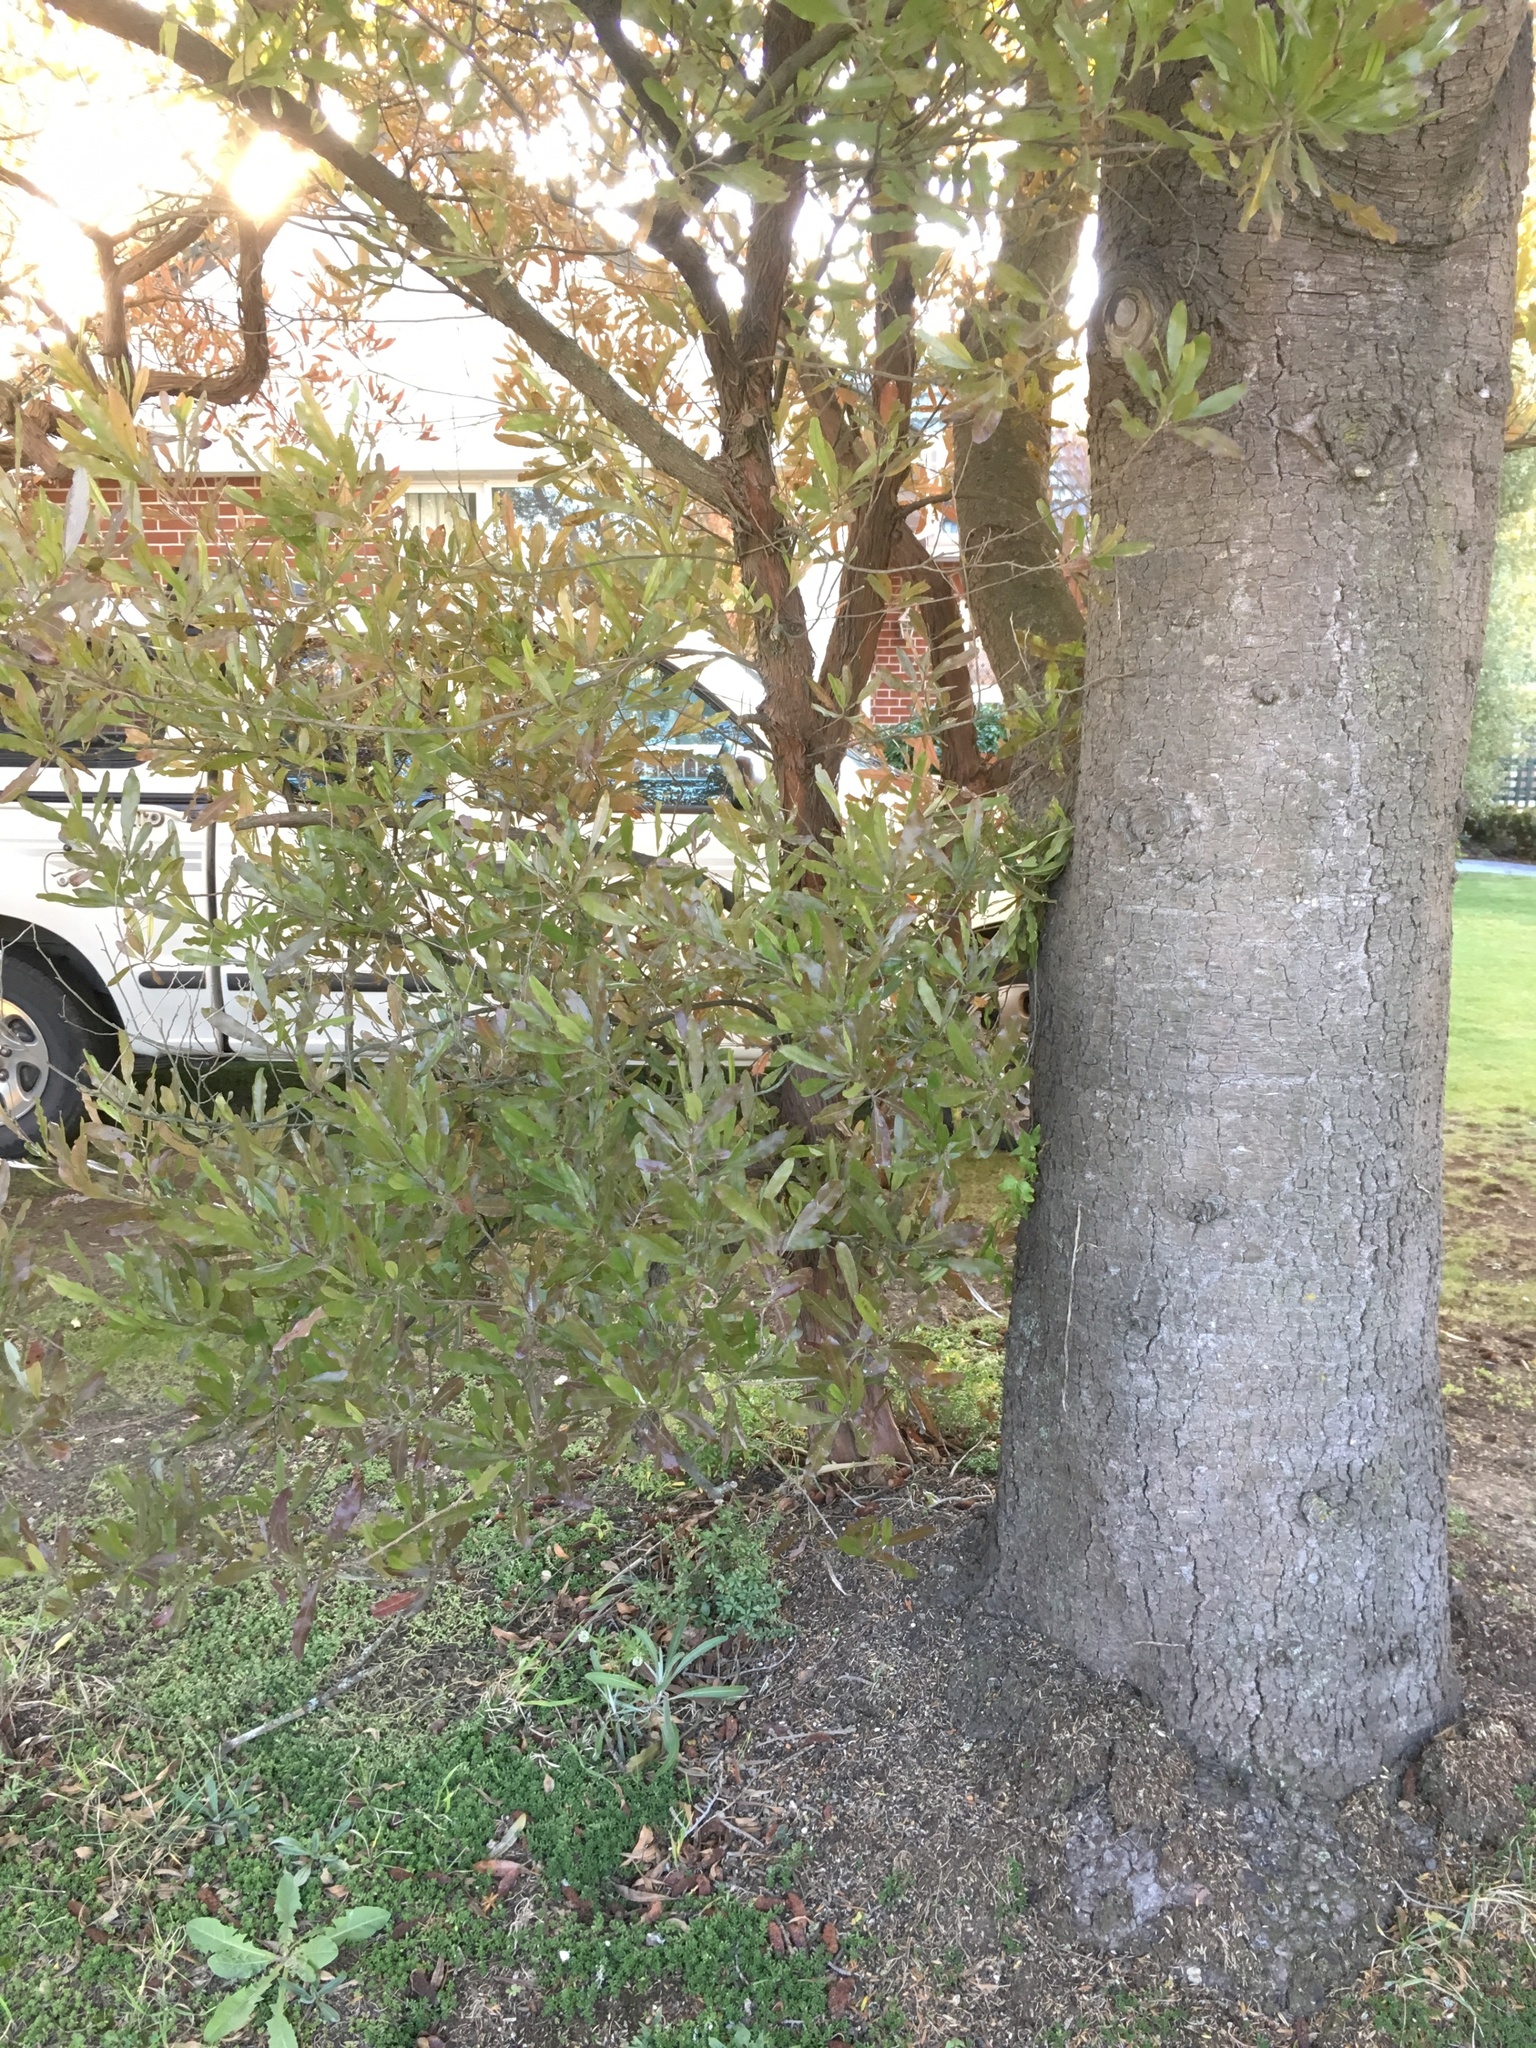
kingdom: Plantae
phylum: Tracheophyta
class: Magnoliopsida
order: Asterales
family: Asteraceae
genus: Senecio
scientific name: Senecio quadridentatus
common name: Cotton fireweed
